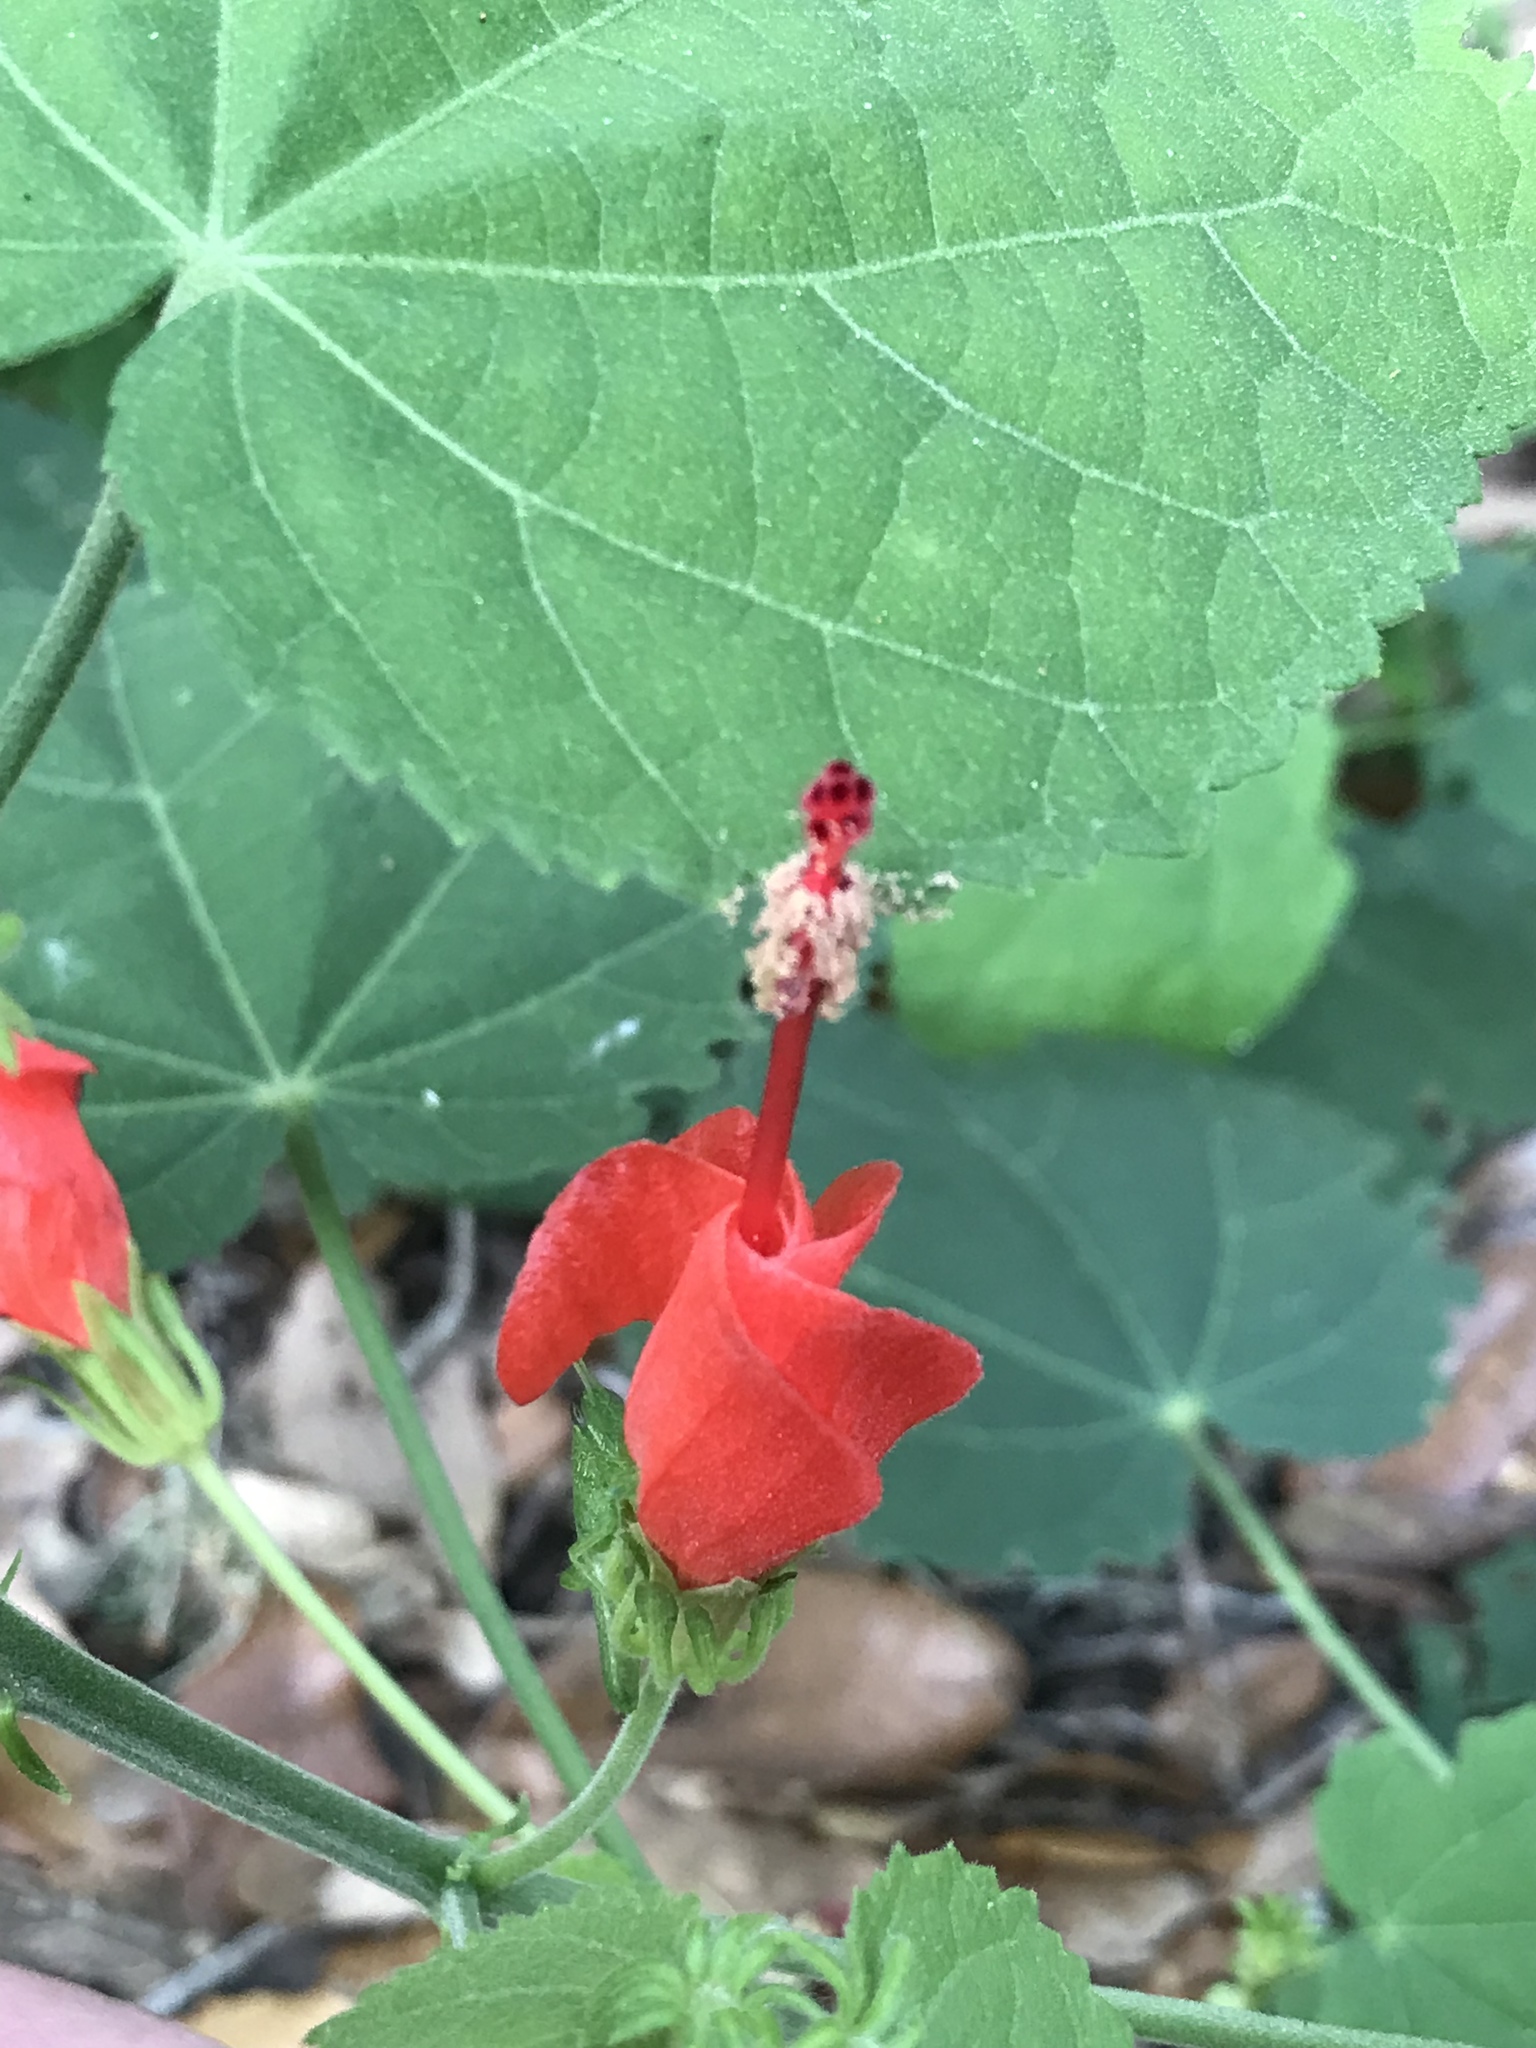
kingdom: Plantae
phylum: Tracheophyta
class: Magnoliopsida
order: Malvales
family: Malvaceae
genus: Malvaviscus
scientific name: Malvaviscus arboreus
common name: Wax mallow
